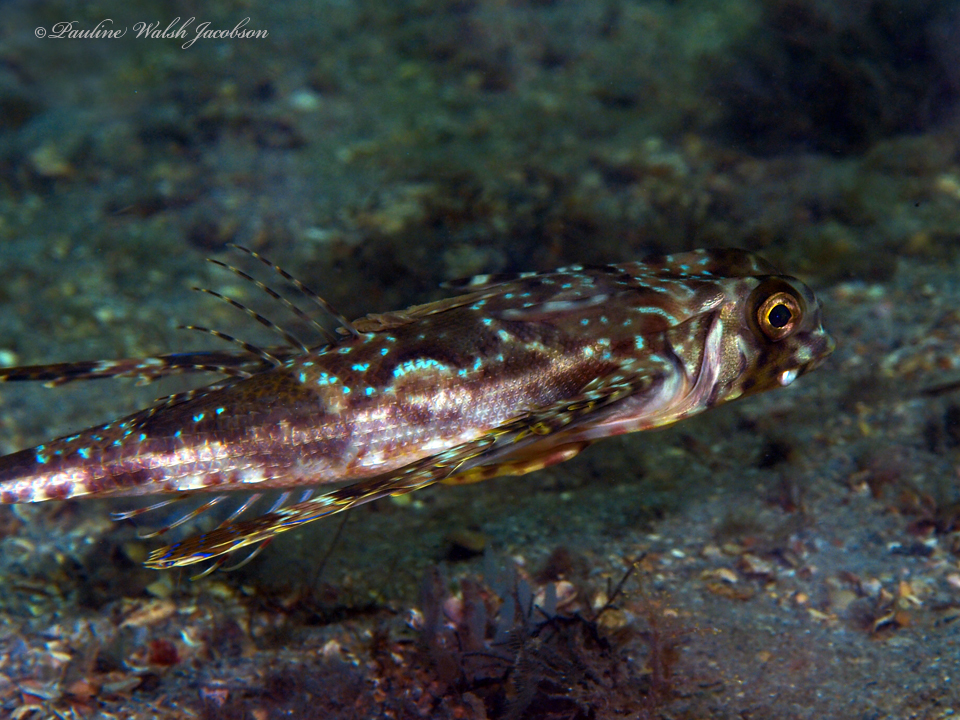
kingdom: Animalia
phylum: Chordata
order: Scorpaeniformes
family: Dactylopteridae
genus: Dactylopterus
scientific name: Dactylopterus volitans
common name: Flying gurnard
